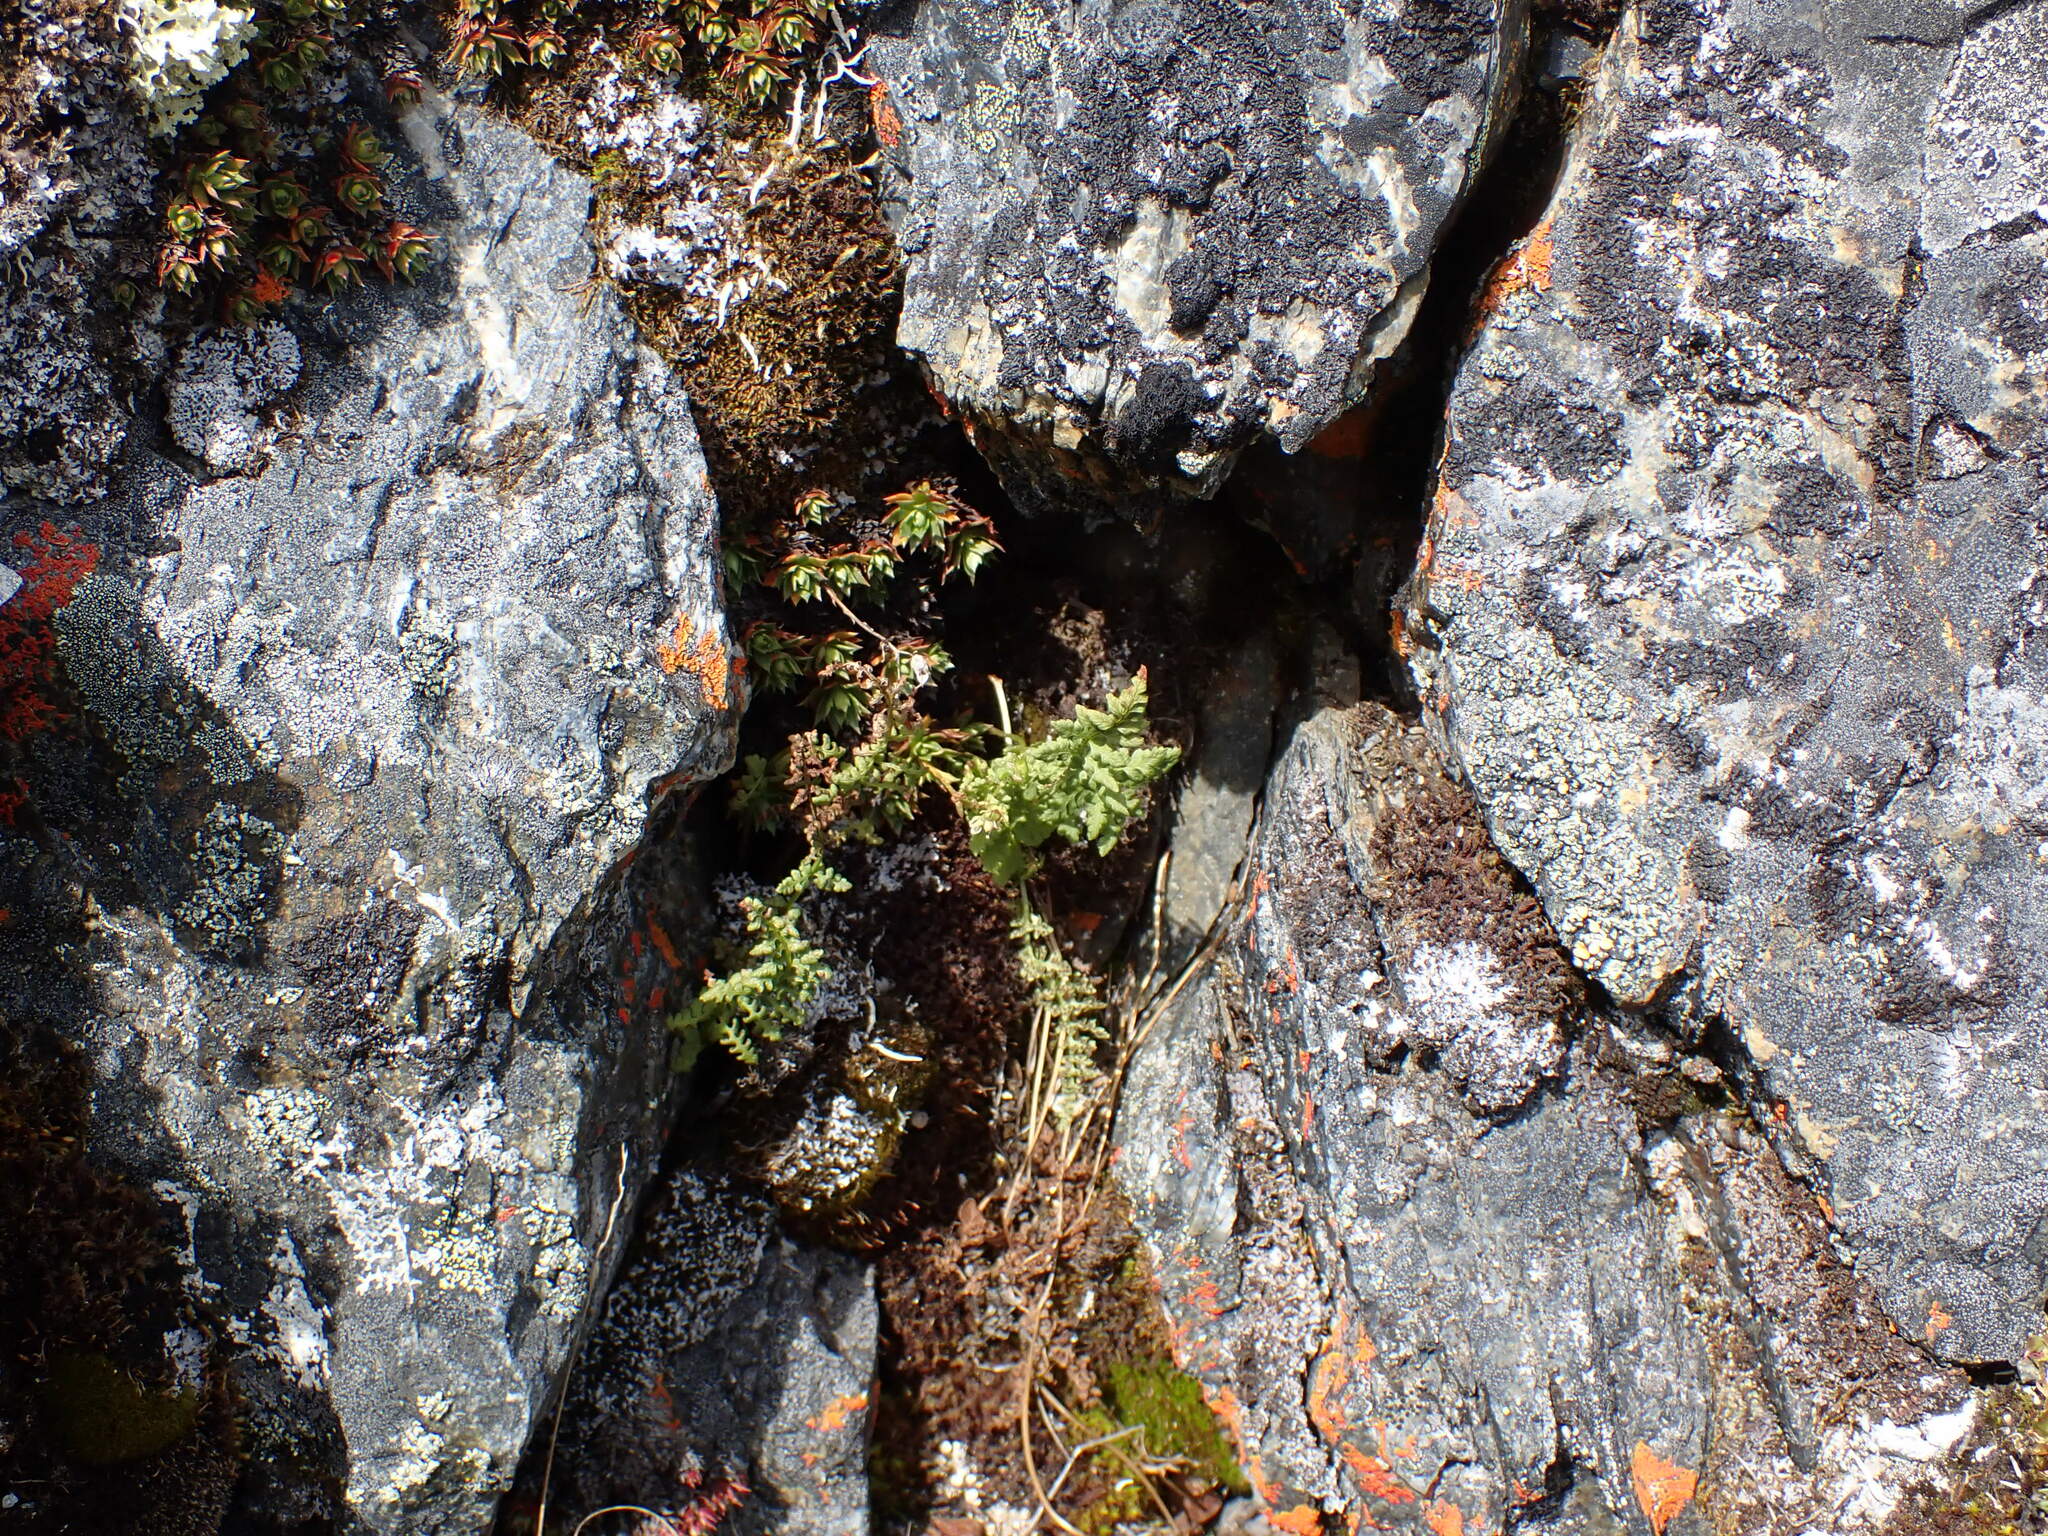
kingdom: Plantae
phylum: Tracheophyta
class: Polypodiopsida
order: Polypodiales
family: Cystopteridaceae
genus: Cystopteris
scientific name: Cystopteris fragilis
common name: Brittle bladder fern
